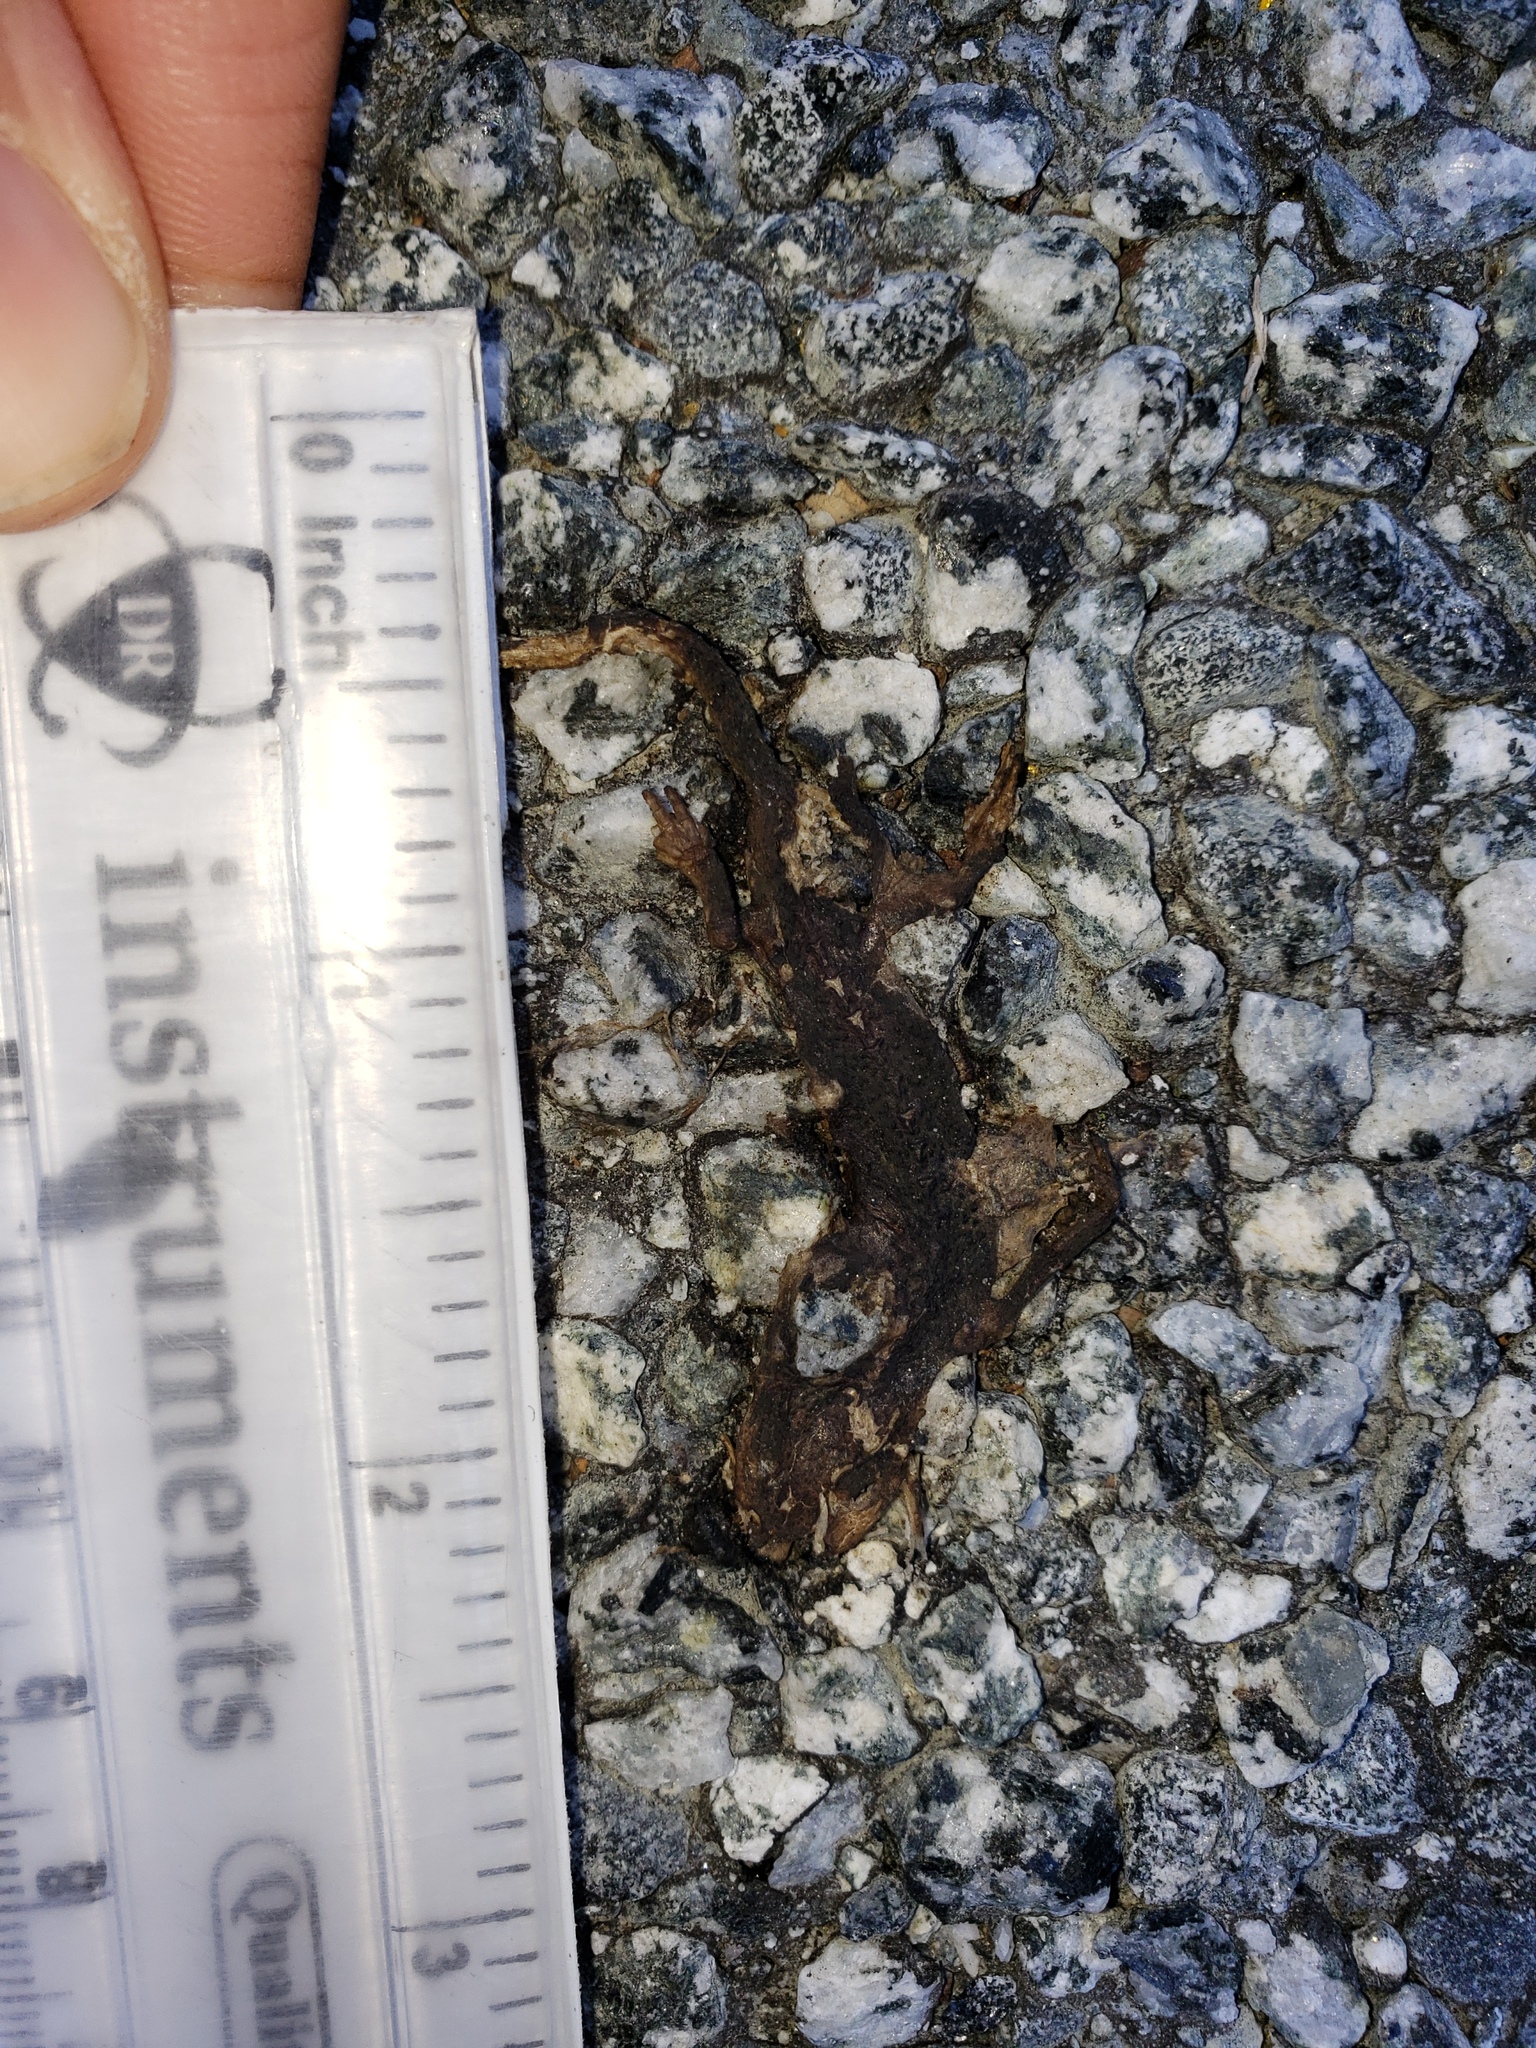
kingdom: Animalia
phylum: Chordata
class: Amphibia
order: Caudata
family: Salamandridae
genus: Taricha
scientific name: Taricha
